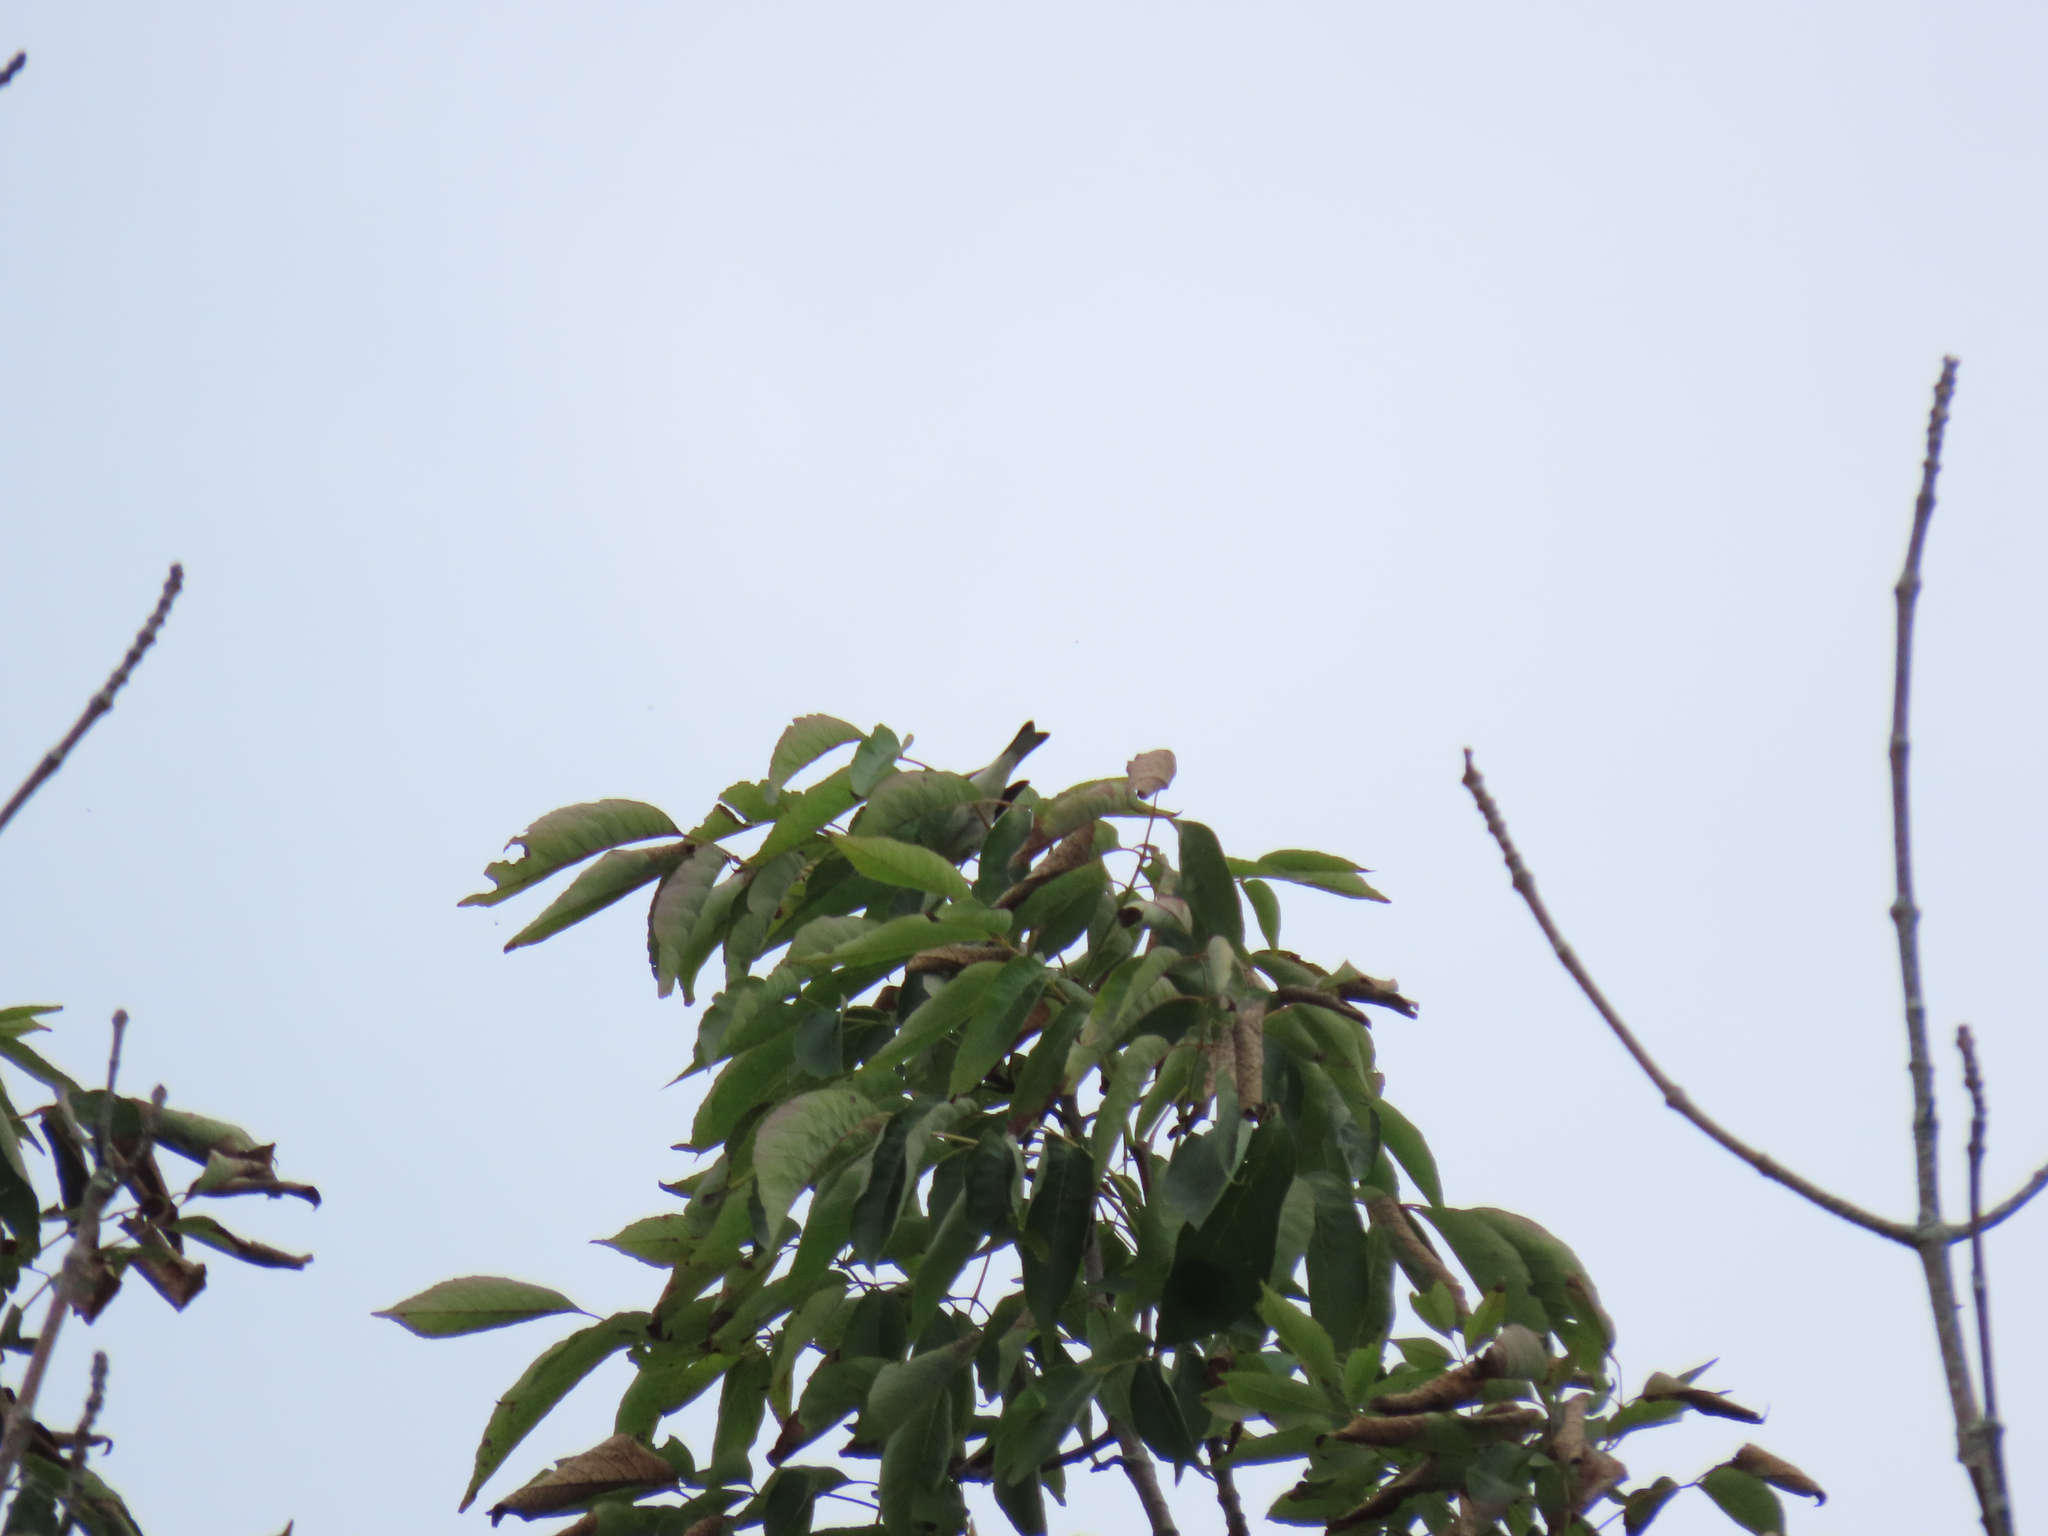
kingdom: Animalia
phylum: Chordata
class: Aves
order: Passeriformes
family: Parulidae
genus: Setophaga
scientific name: Setophaga tigrina
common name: Cape may warbler
